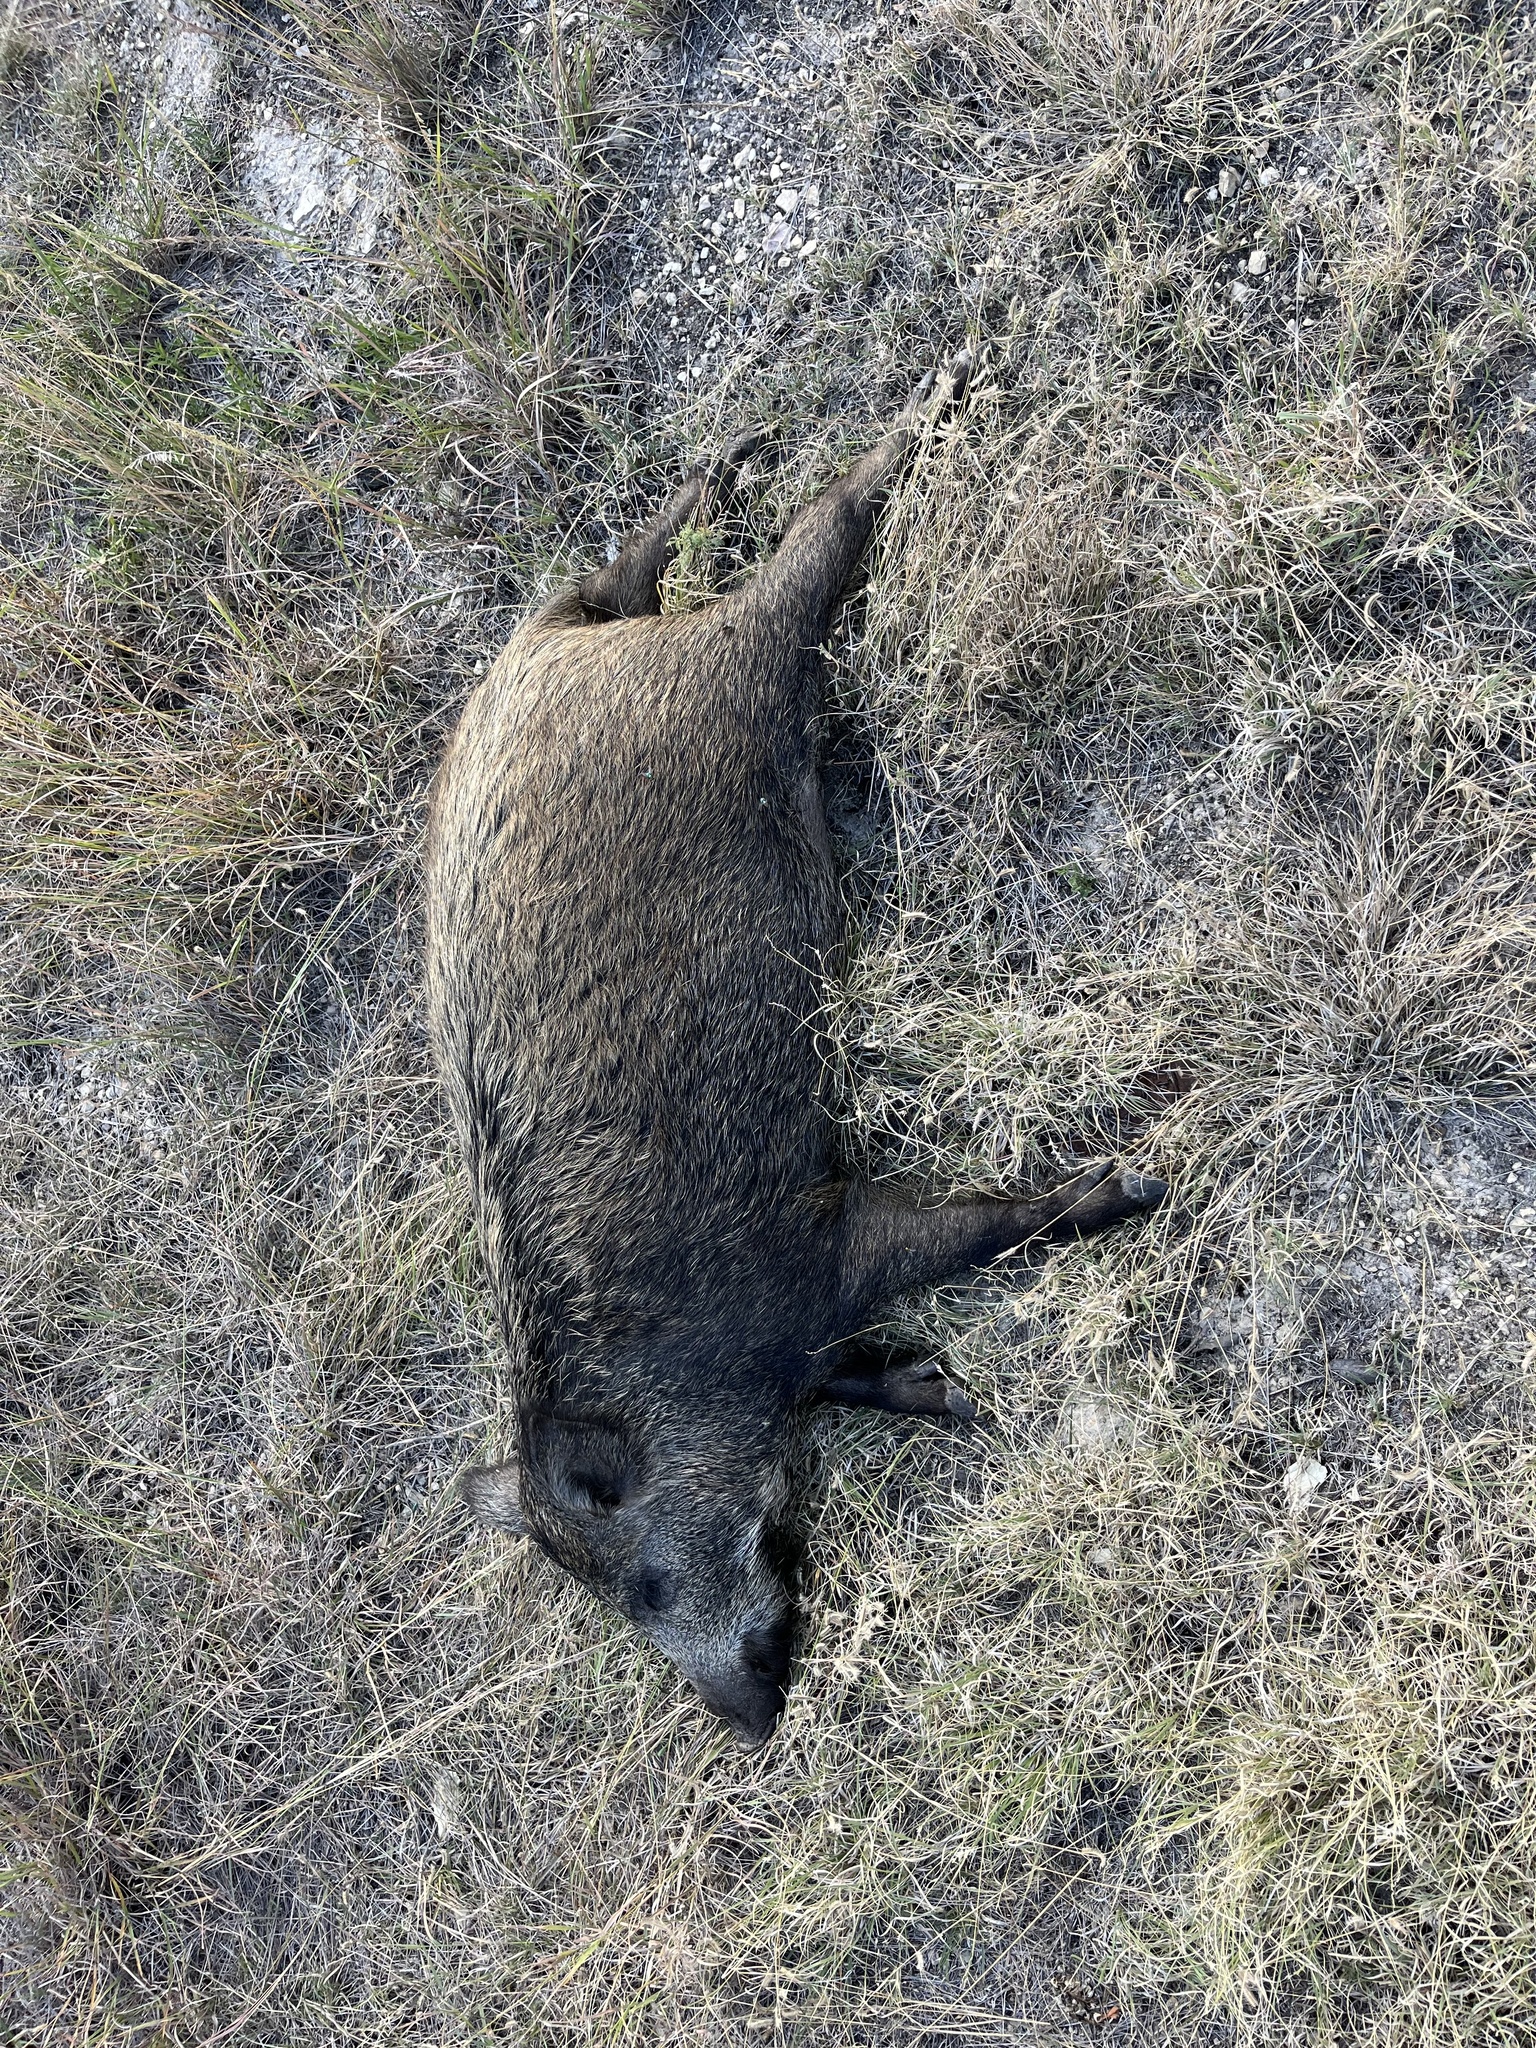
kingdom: Animalia
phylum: Chordata
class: Mammalia
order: Artiodactyla
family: Suidae
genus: Sus
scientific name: Sus scrofa
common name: Wild boar
